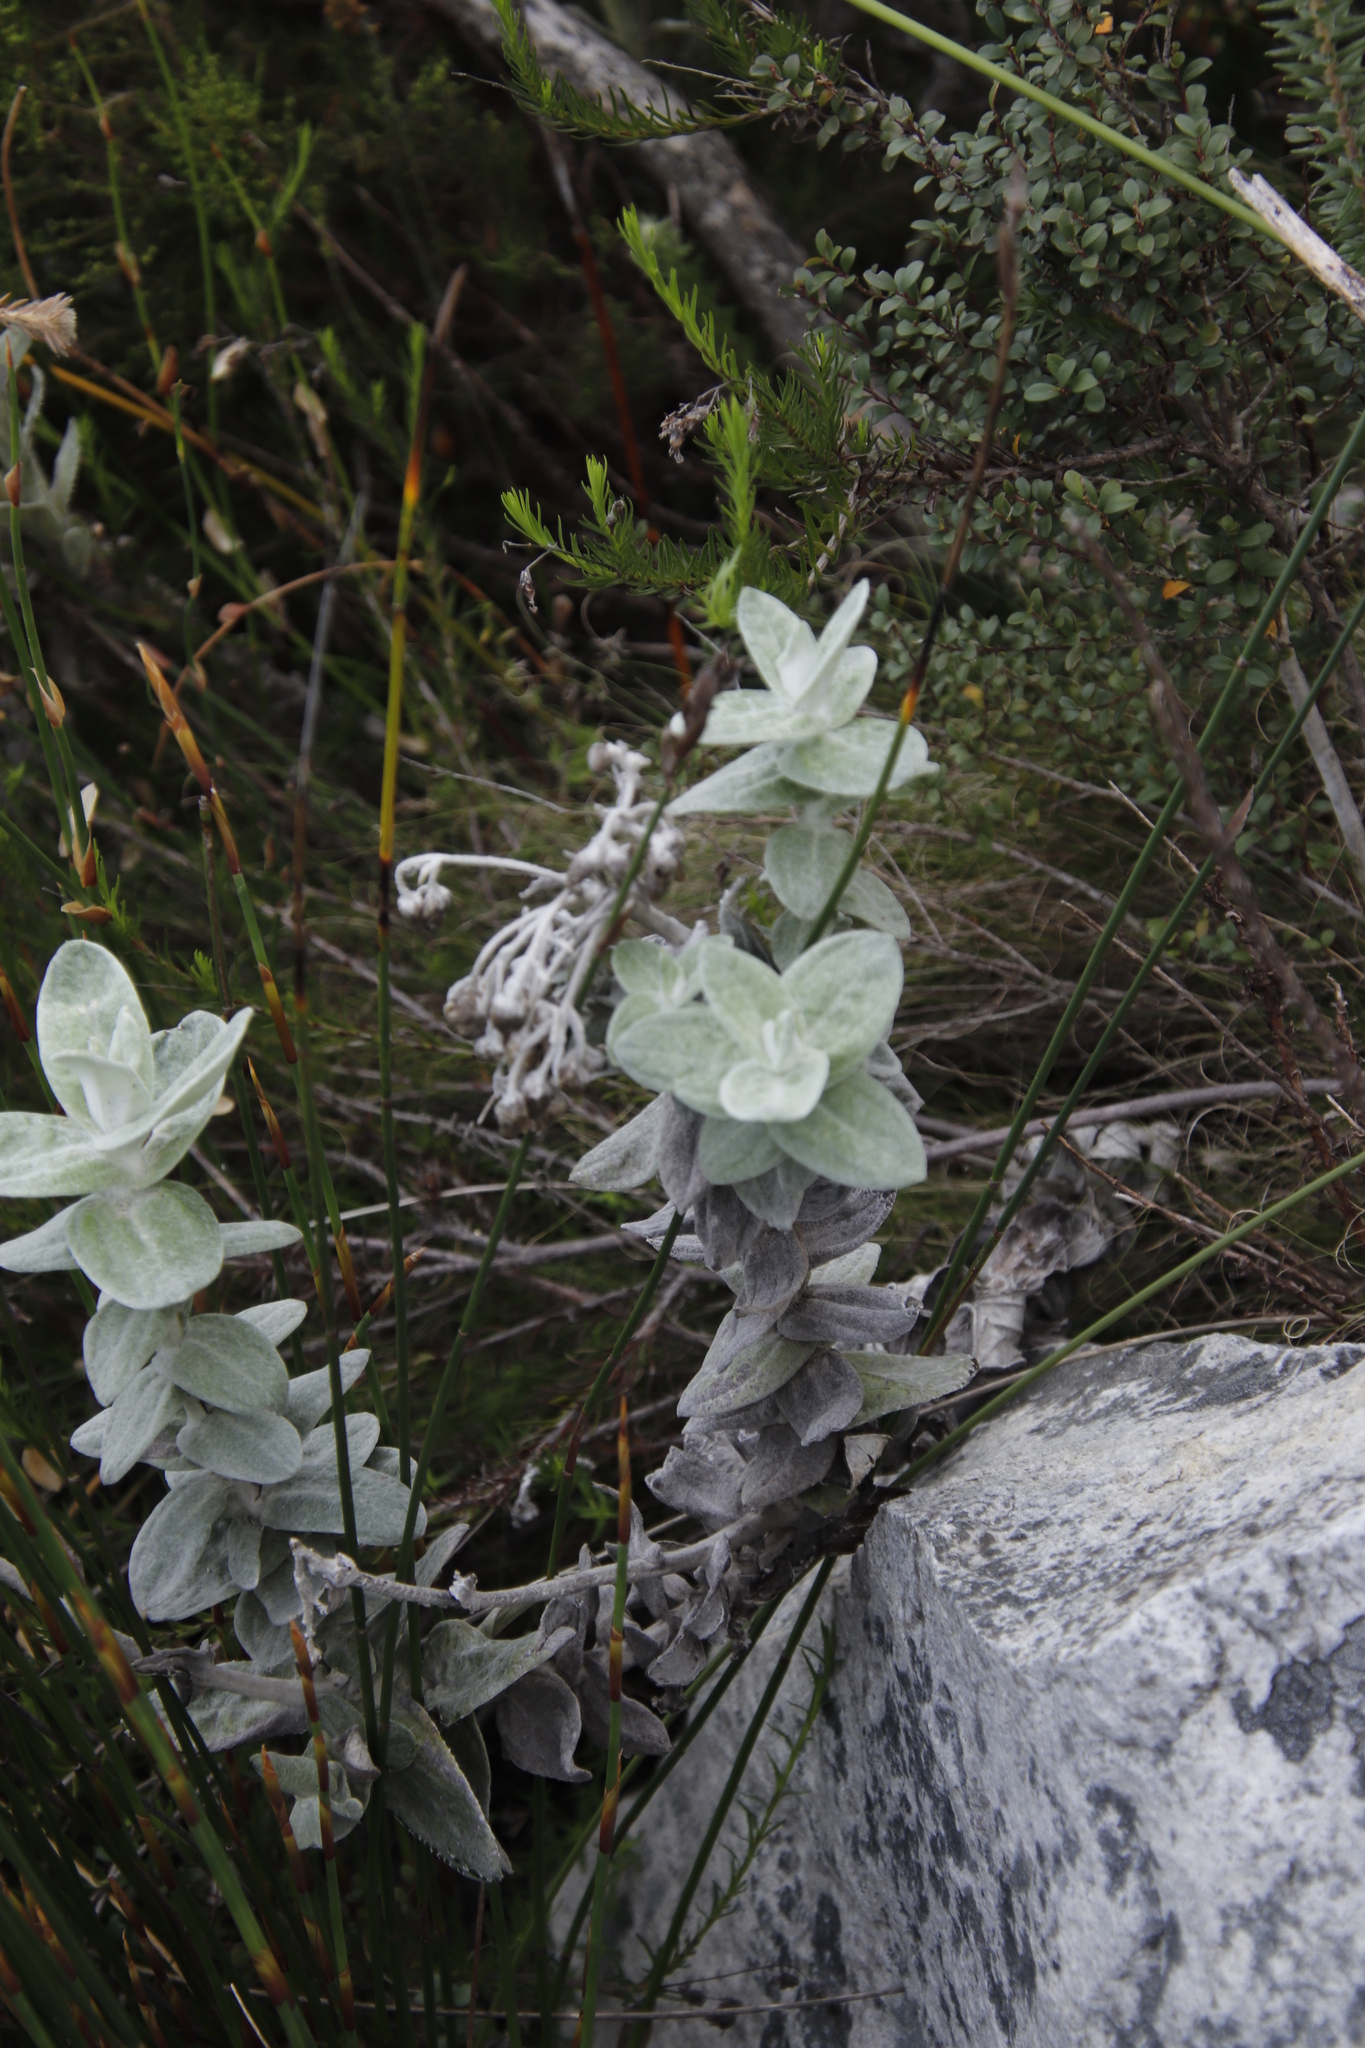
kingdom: Plantae
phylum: Tracheophyta
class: Magnoliopsida
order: Asterales
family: Asteraceae
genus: Helichrysum
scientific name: Helichrysum fruticans
